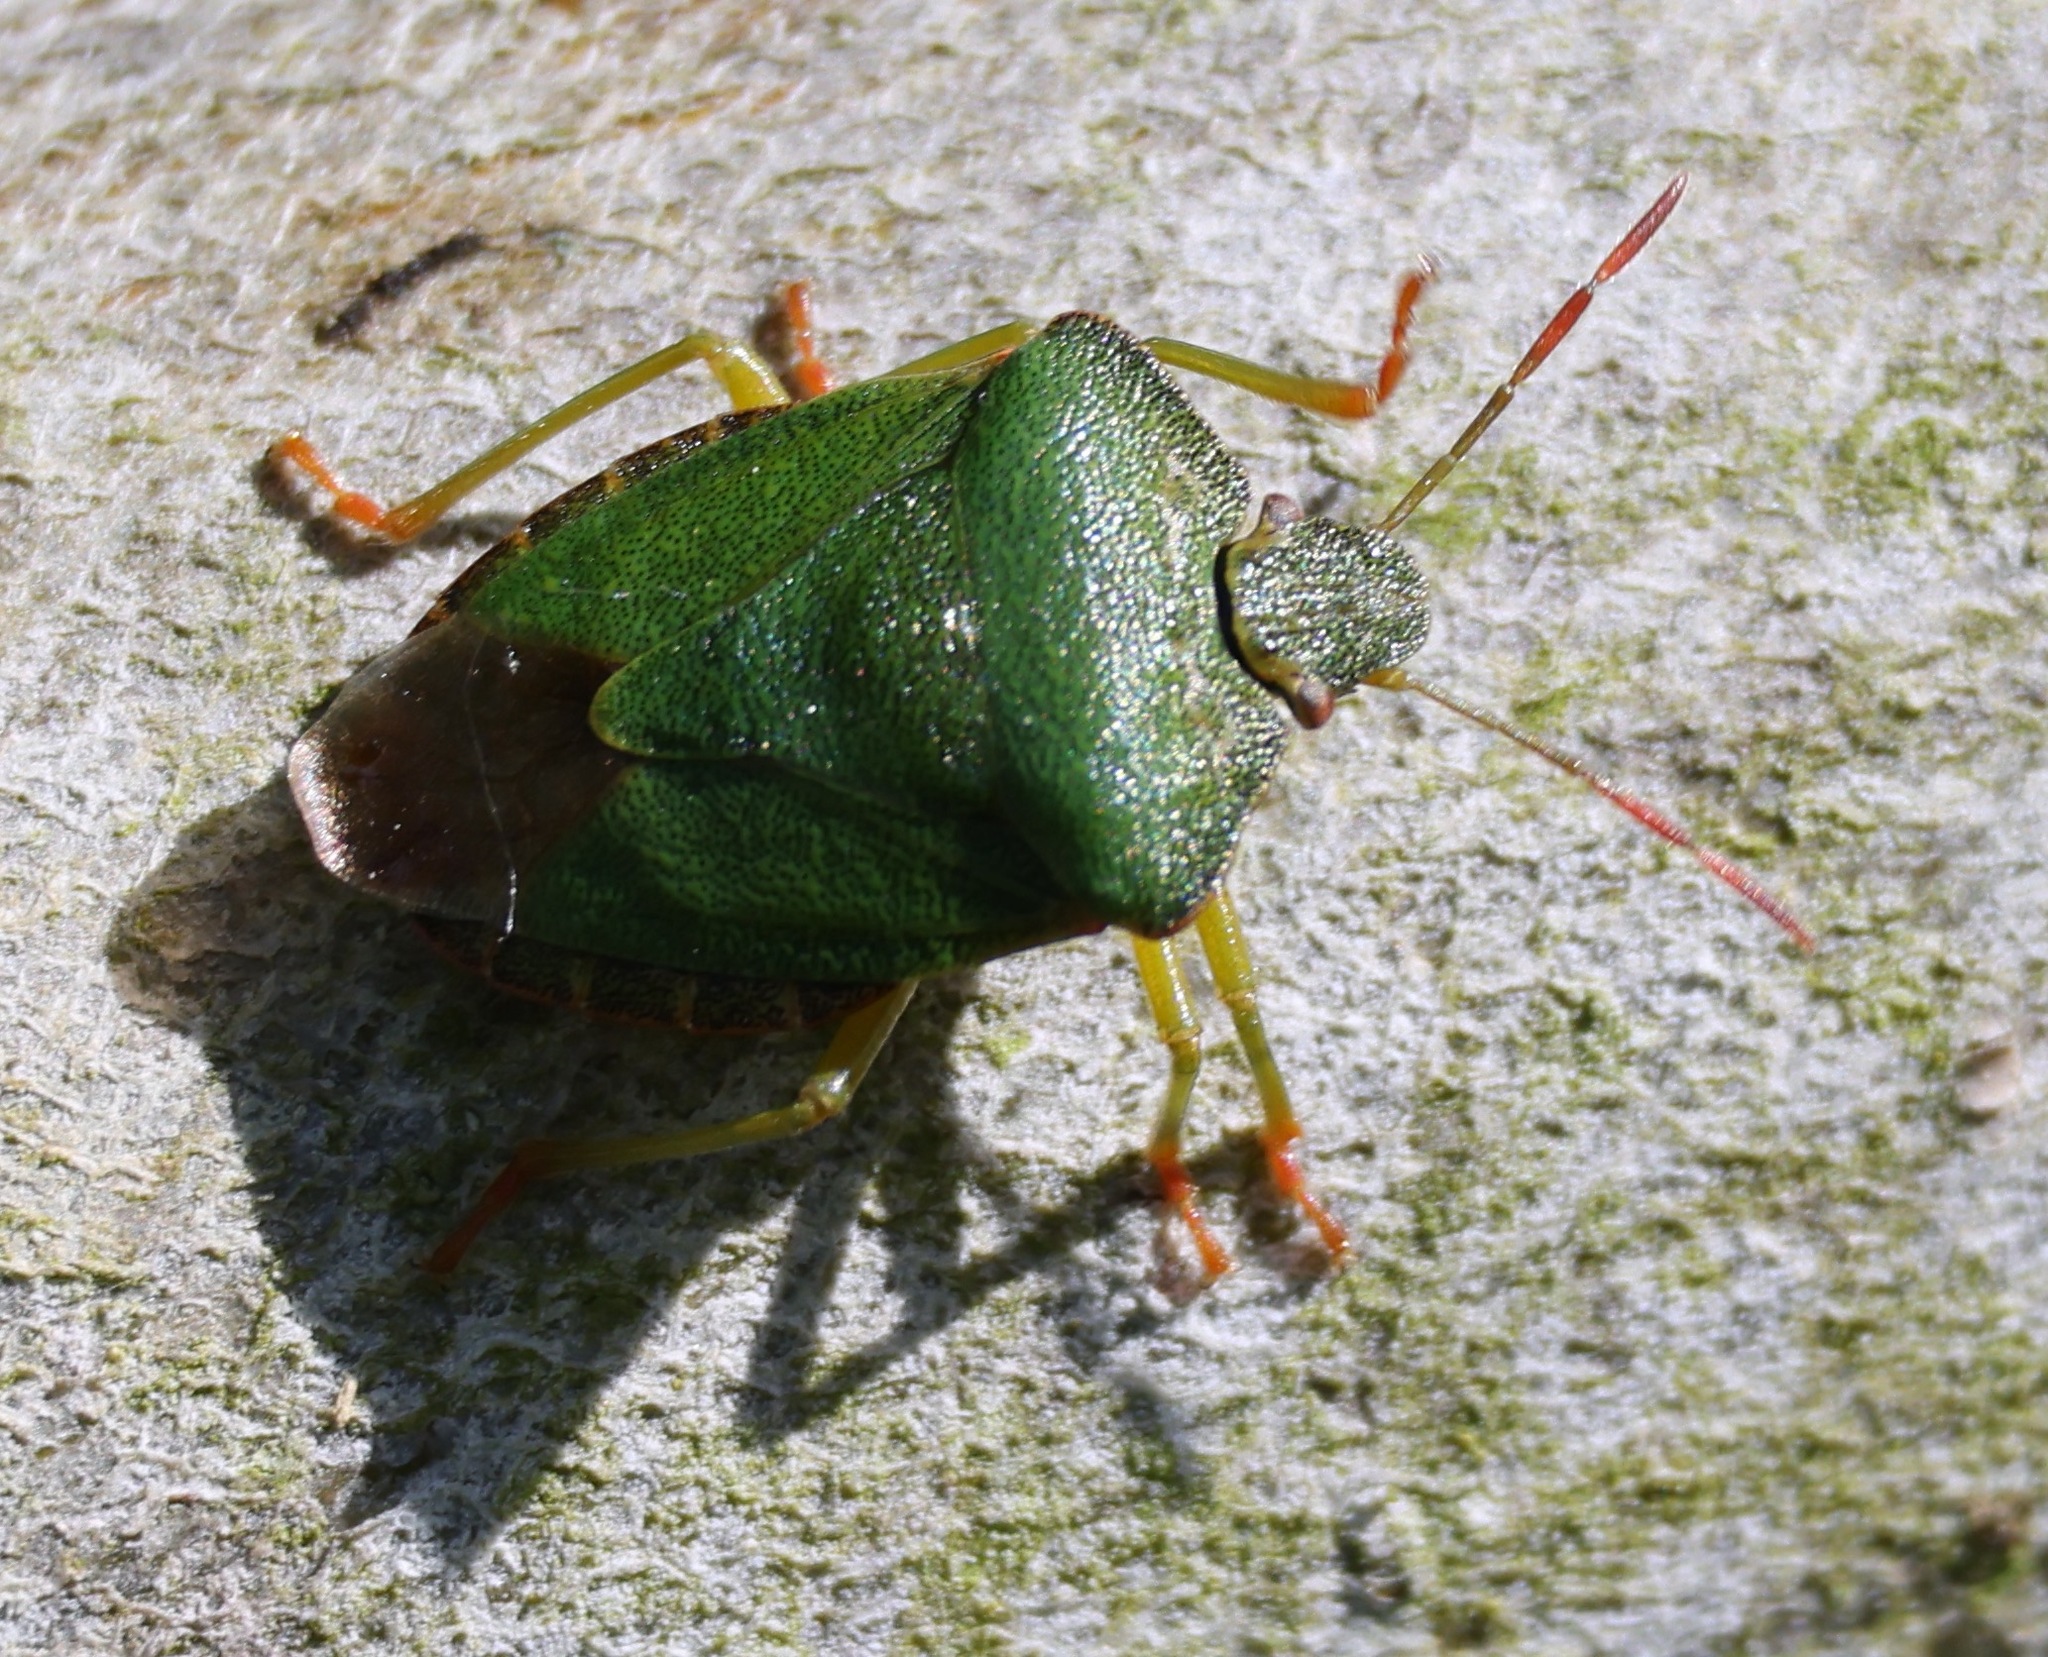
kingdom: Animalia
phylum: Arthropoda
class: Insecta
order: Hemiptera
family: Pentatomidae
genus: Palomena
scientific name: Palomena prasina
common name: Green shieldbug
